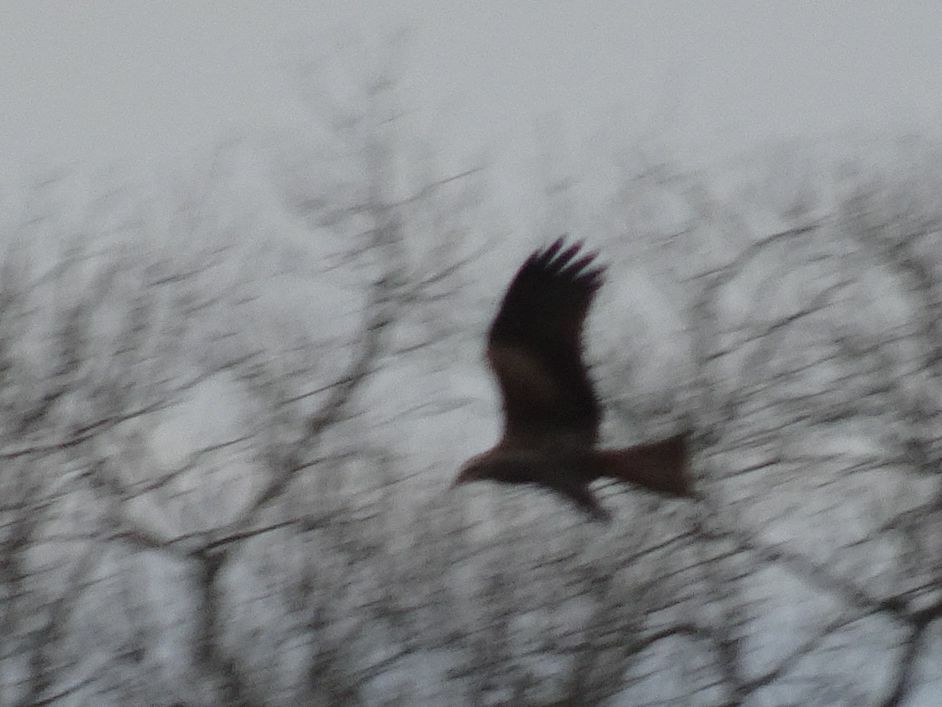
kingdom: Animalia
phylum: Chordata
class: Aves
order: Accipitriformes
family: Accipitridae
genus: Milvus
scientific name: Milvus migrans
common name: Black kite
